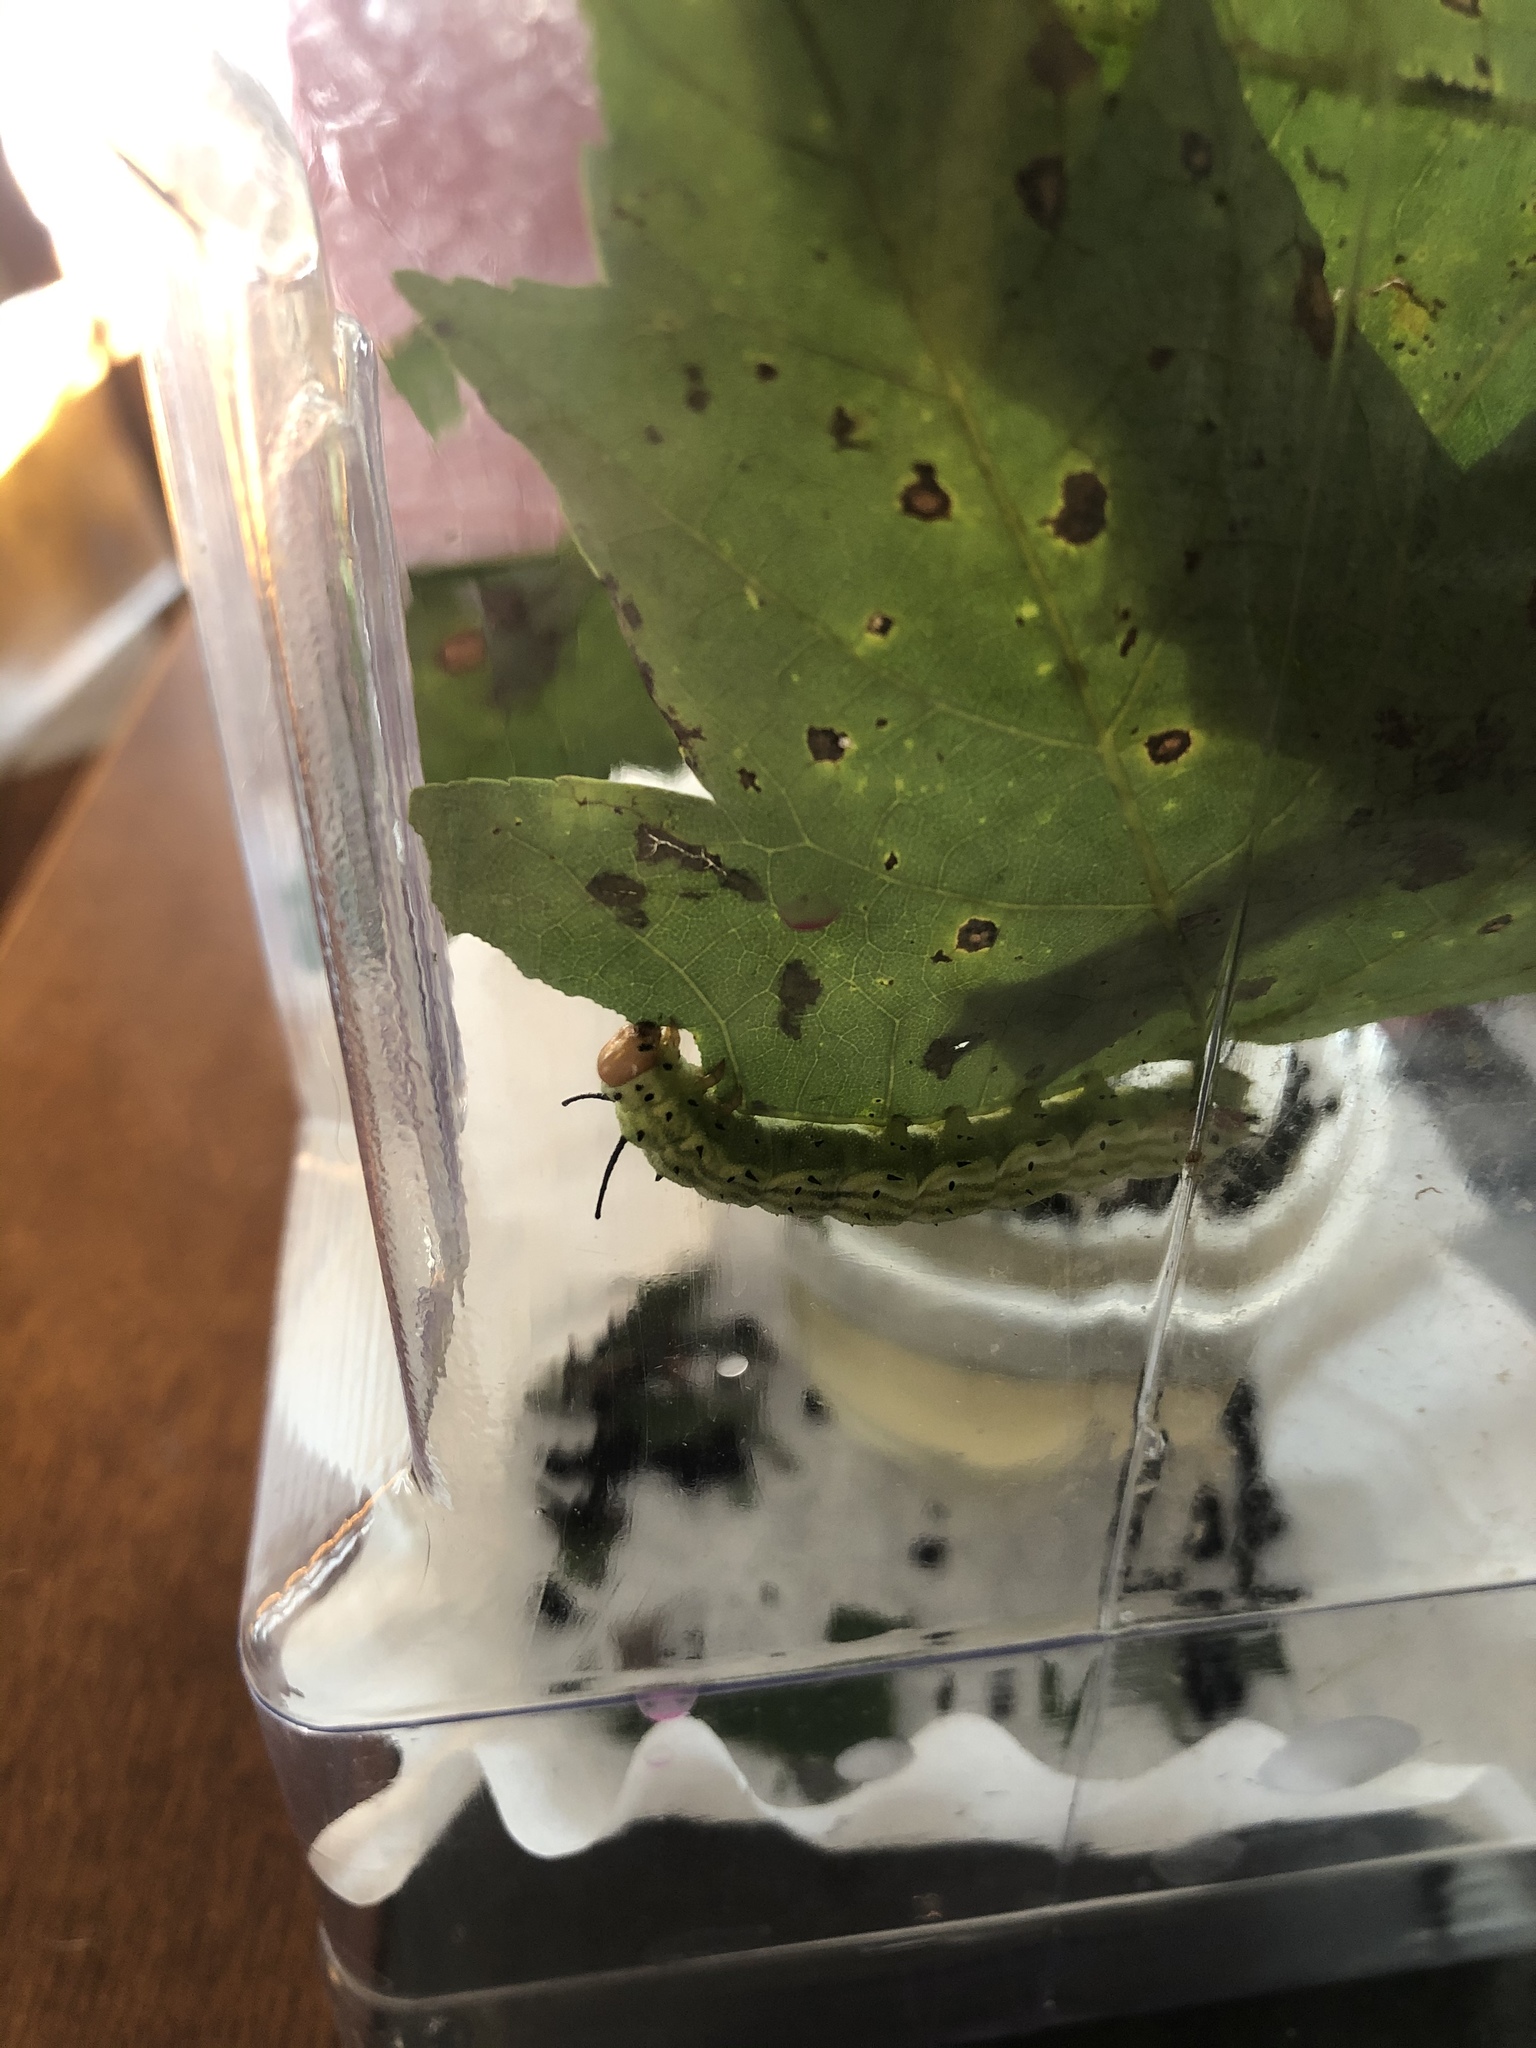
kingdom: Animalia
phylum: Arthropoda
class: Insecta
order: Lepidoptera
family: Saturniidae
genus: Dryocampa
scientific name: Dryocampa rubicunda
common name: Rosy maple moth
